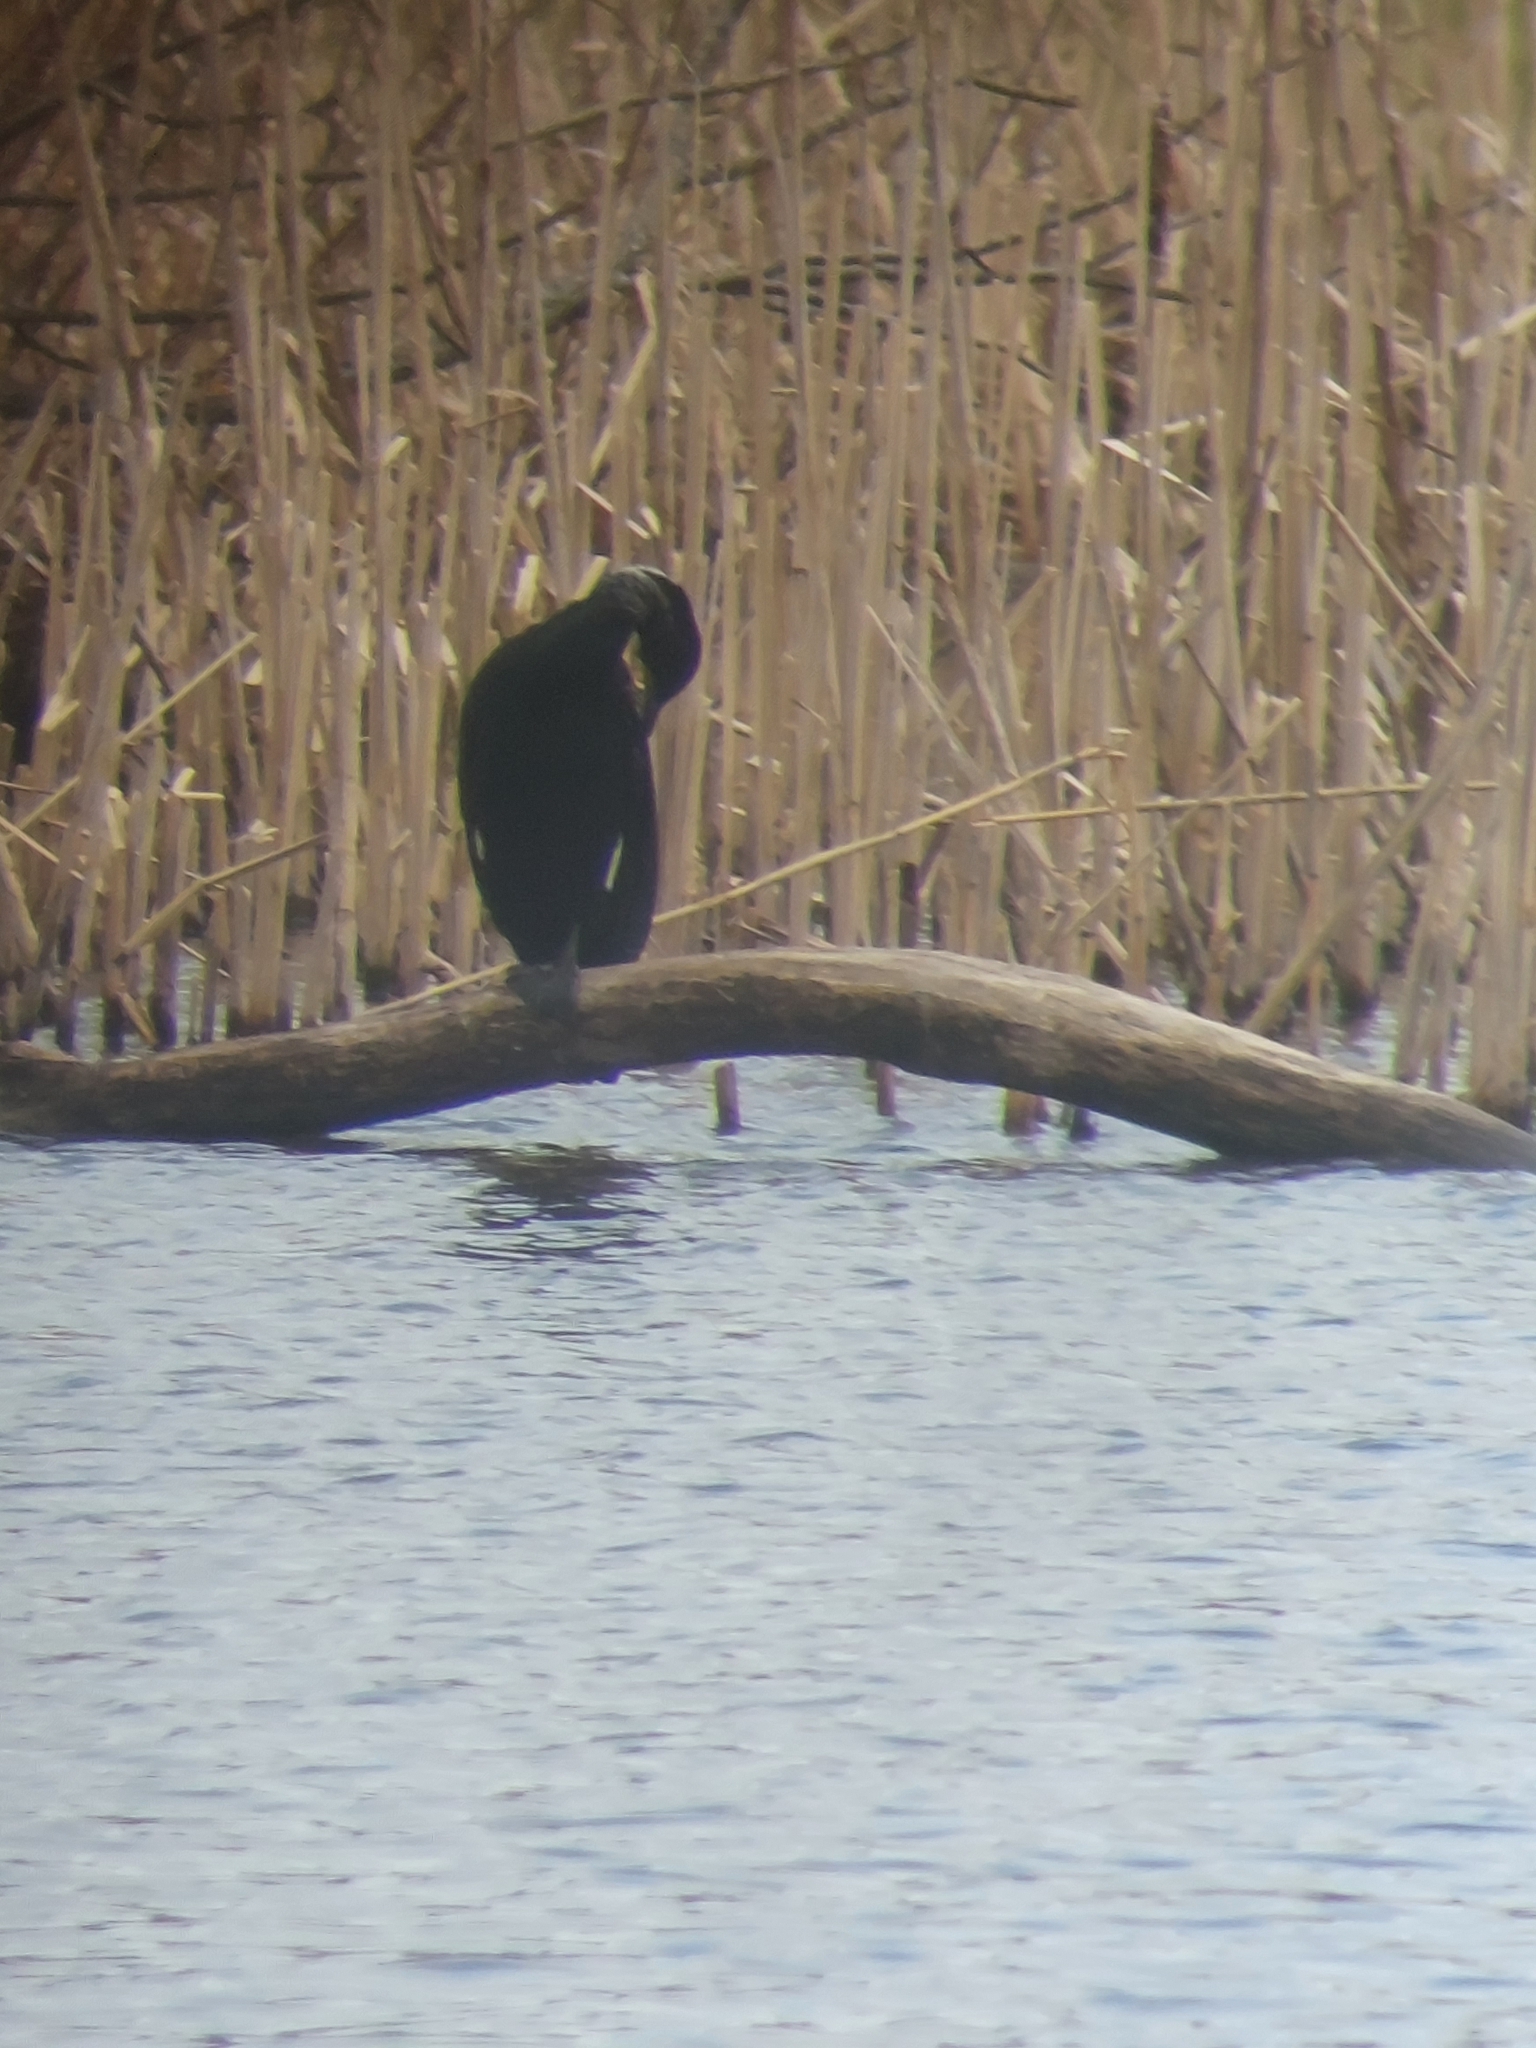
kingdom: Animalia
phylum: Chordata
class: Aves
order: Suliformes
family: Phalacrocoracidae
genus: Phalacrocorax
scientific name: Phalacrocorax carbo
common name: Great cormorant
